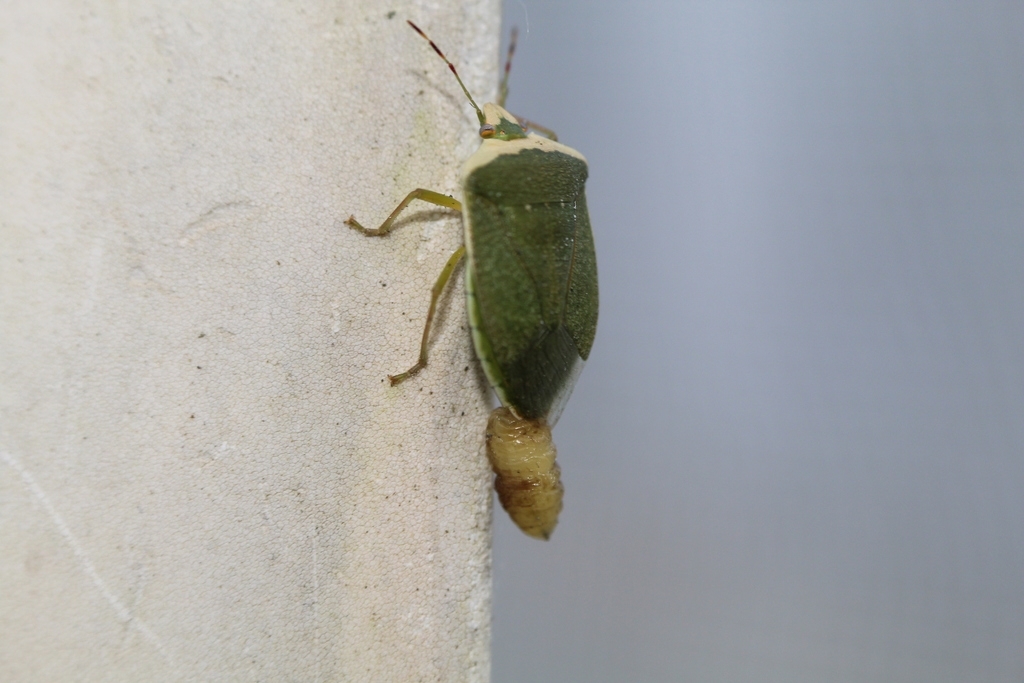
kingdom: Animalia
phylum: Arthropoda
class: Insecta
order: Diptera
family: Tachinidae
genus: Trichopoda
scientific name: Trichopoda pictipennis
